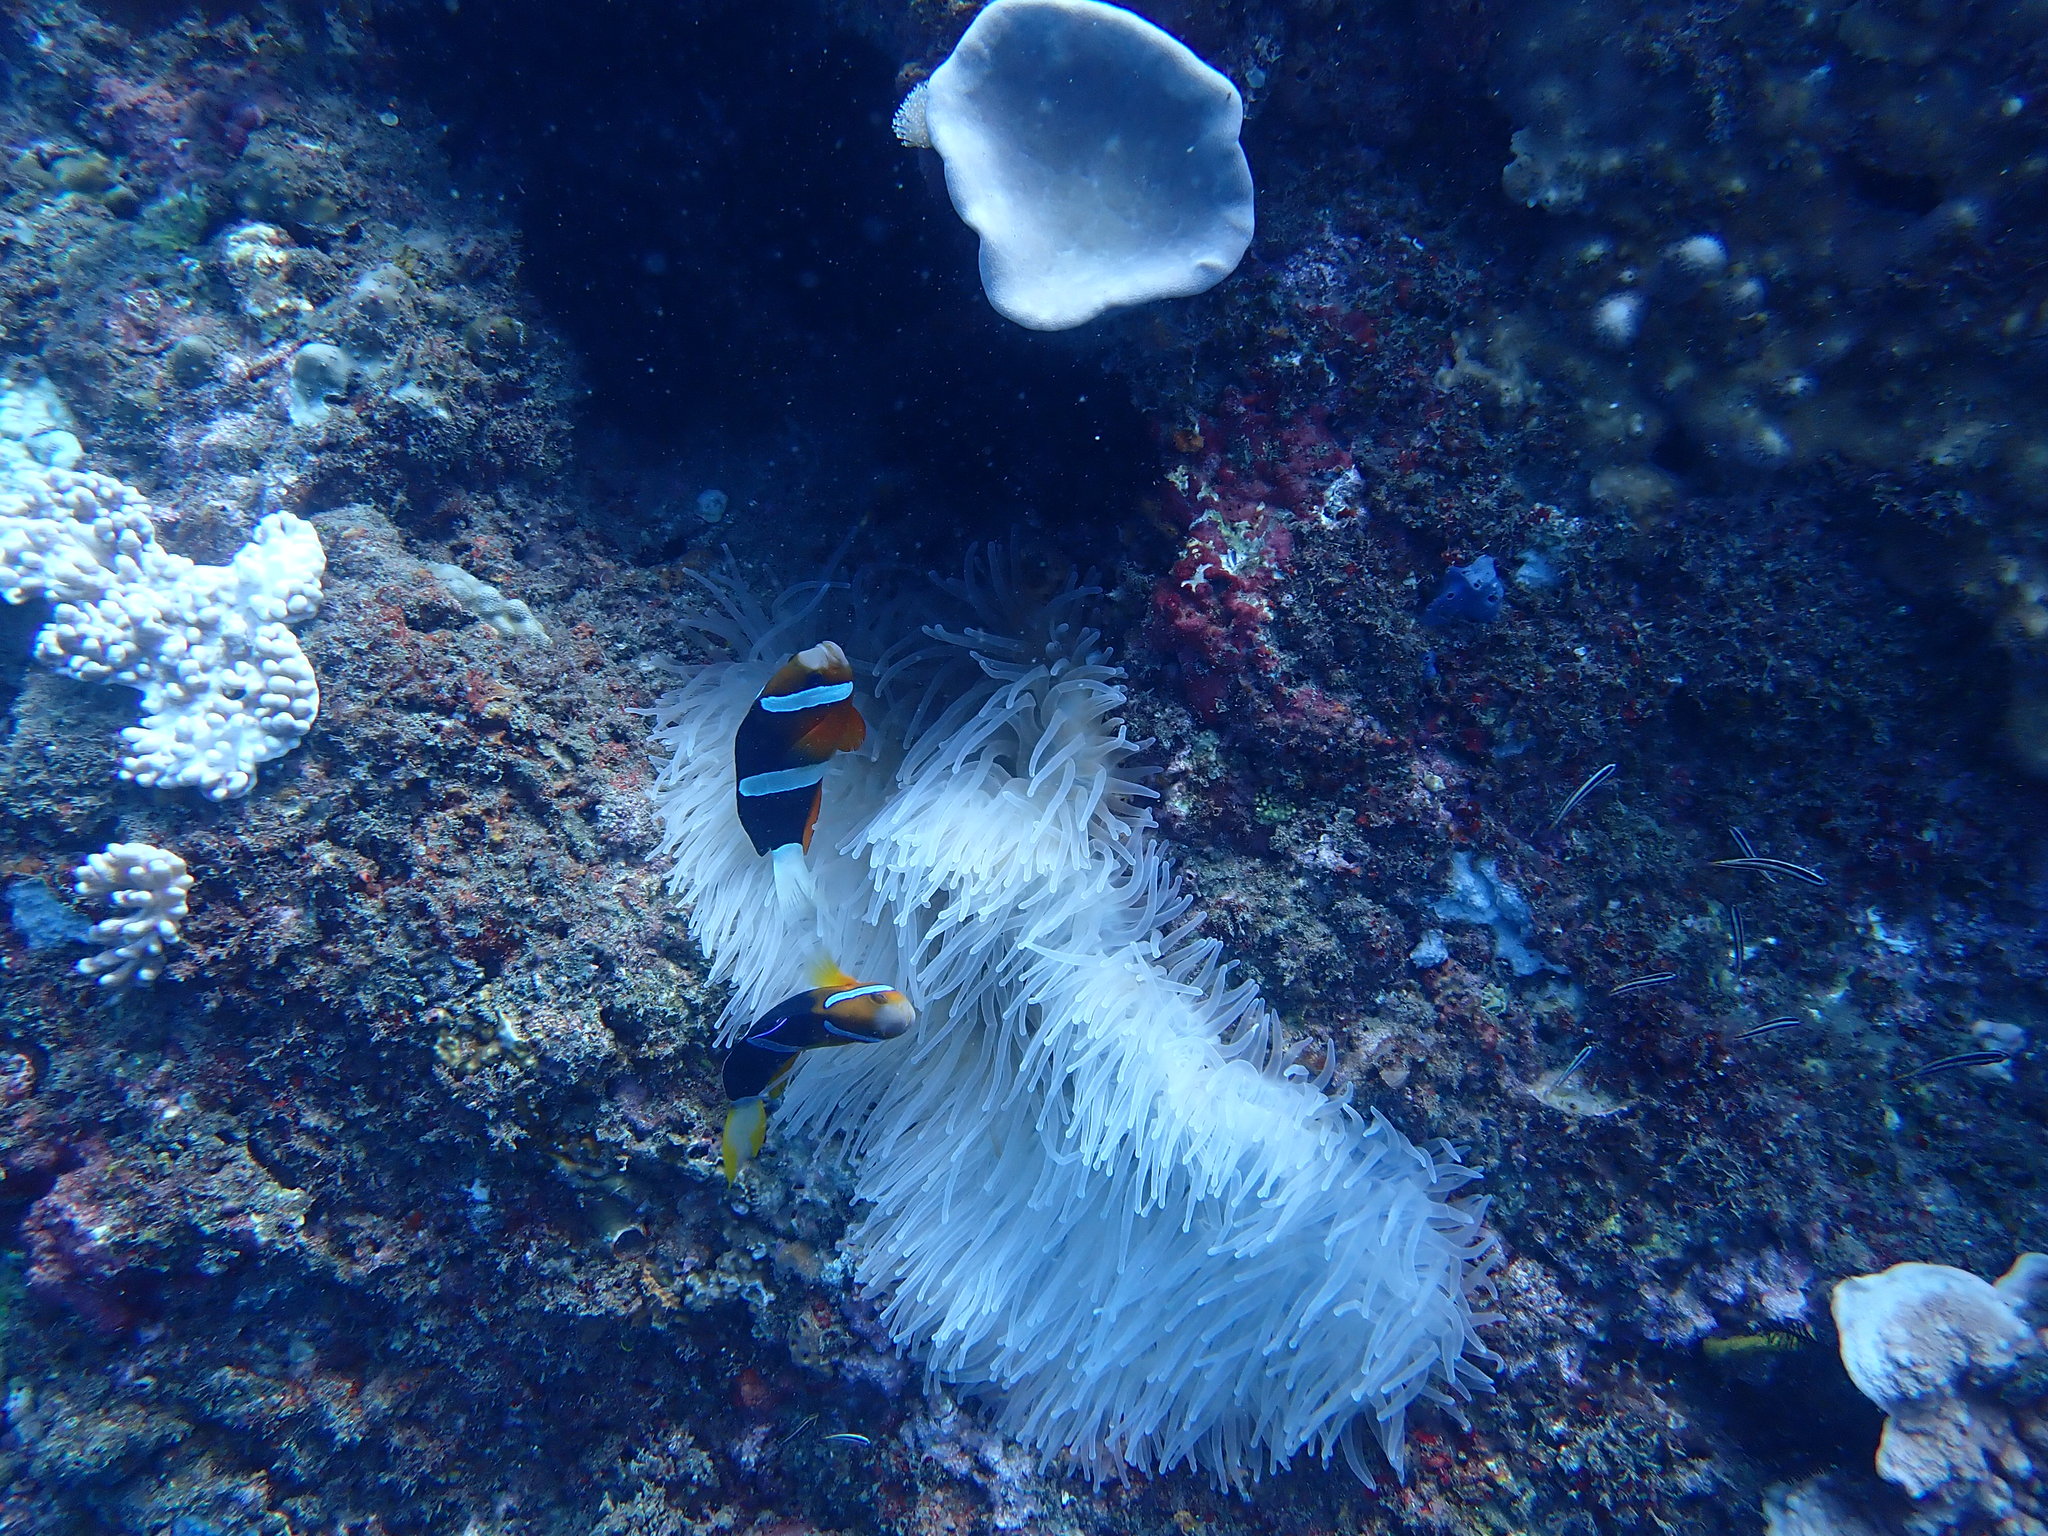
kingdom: Animalia
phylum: Chordata
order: Perciformes
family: Pomacentridae
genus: Amphiprion
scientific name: Amphiprion clarkii
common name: Clark's anemonefish
